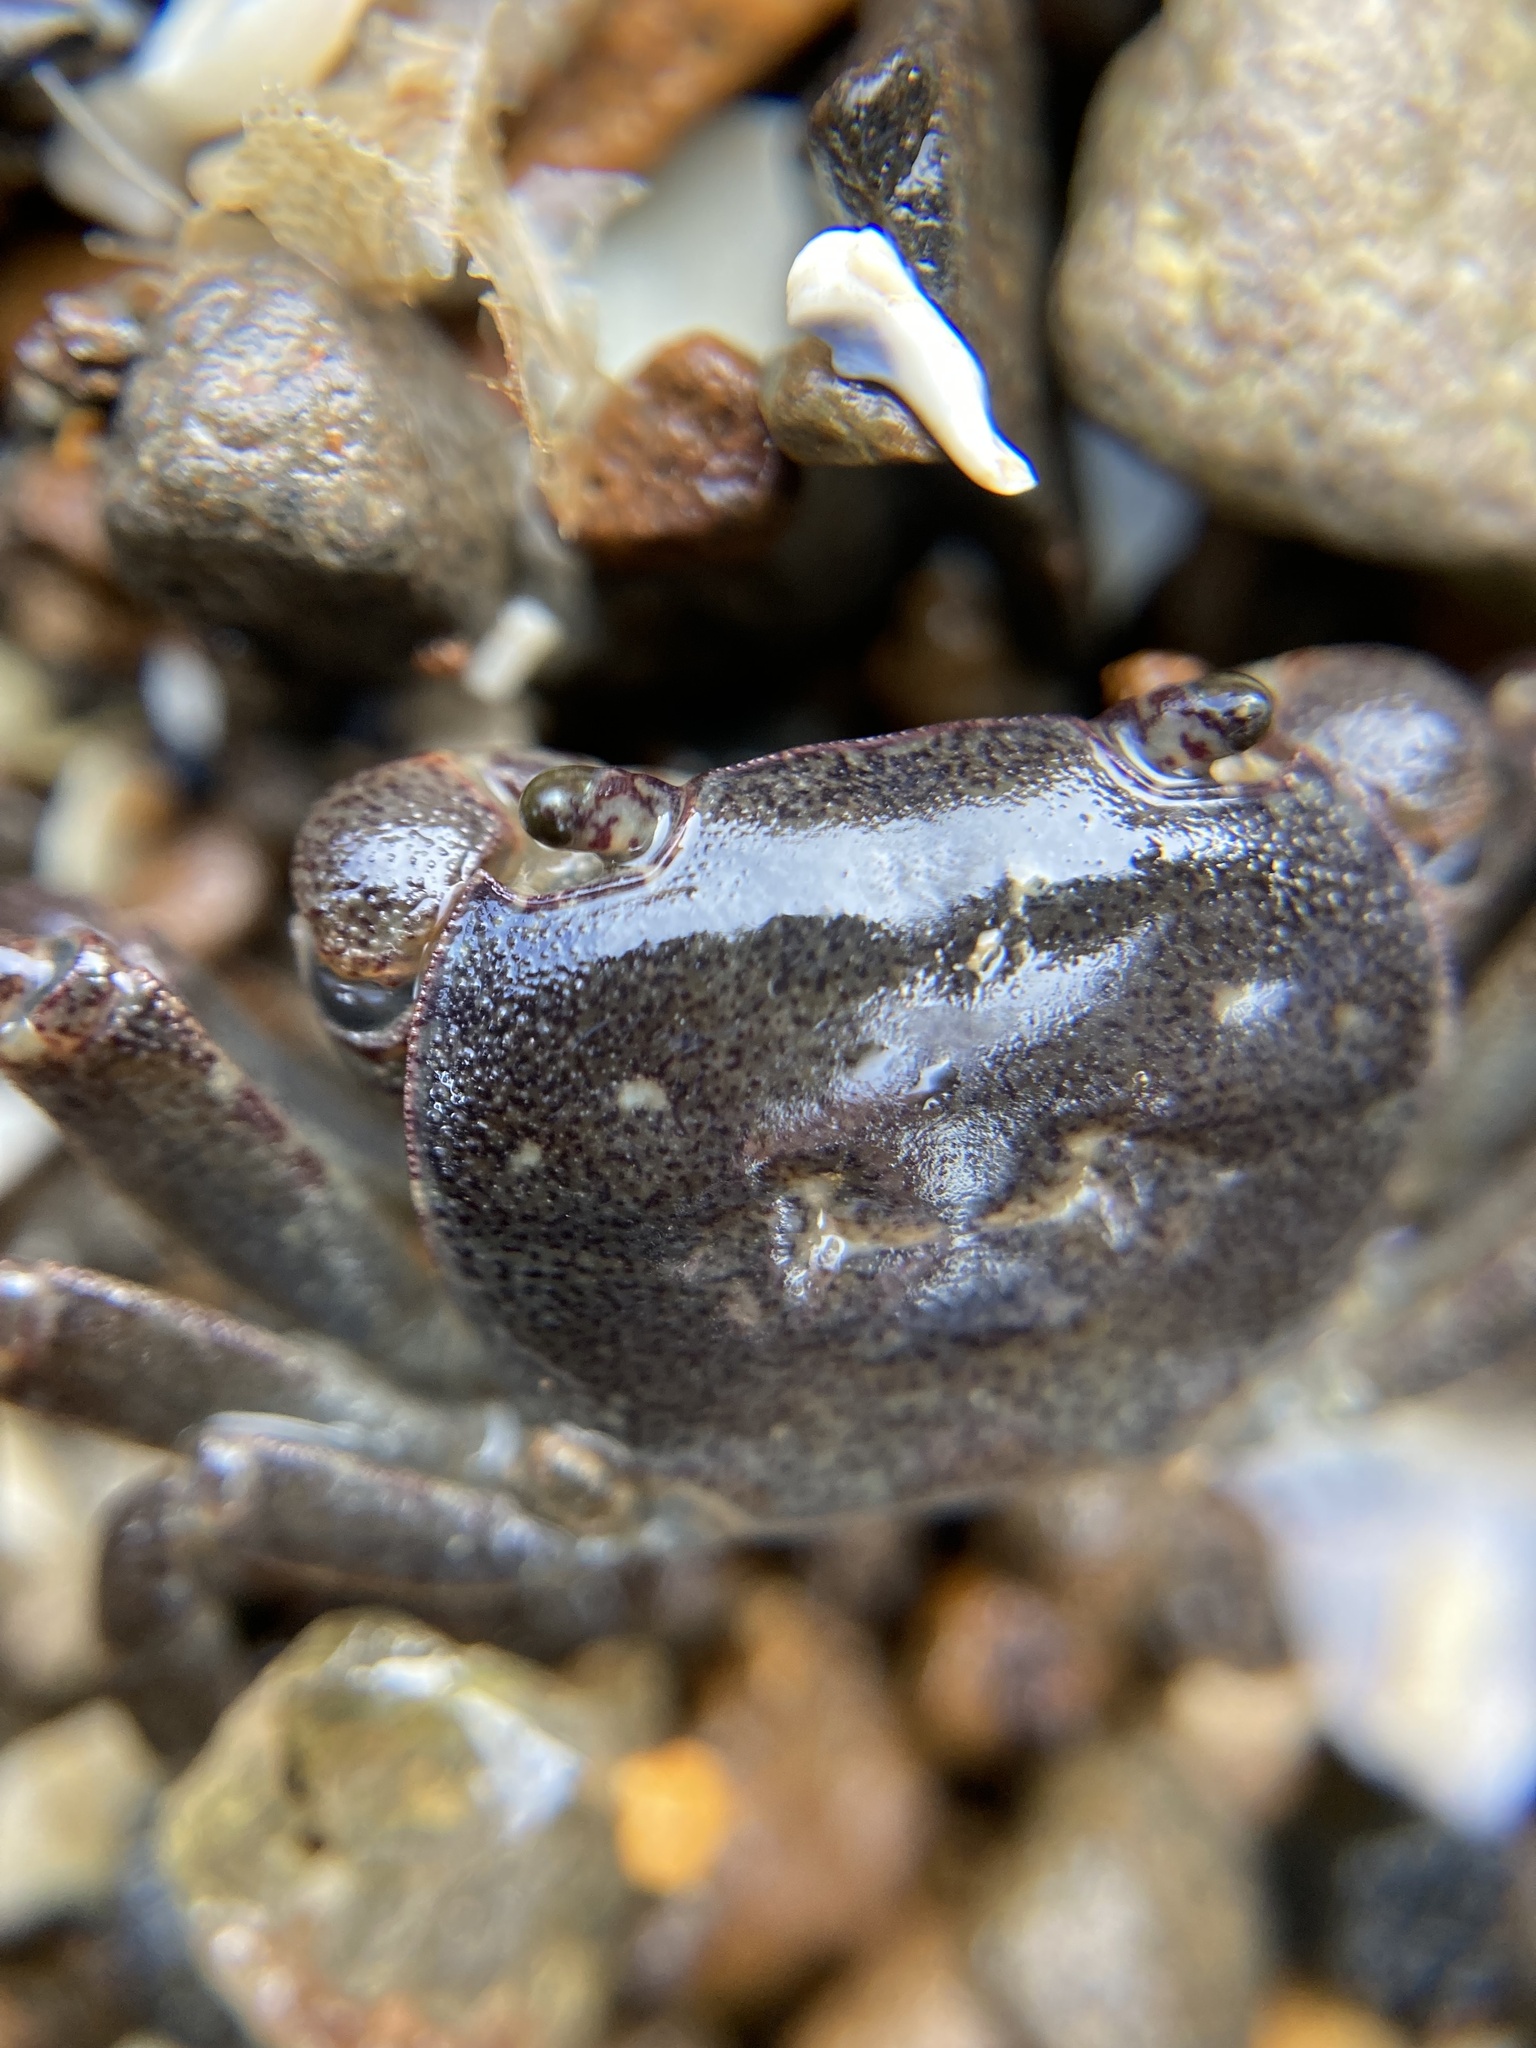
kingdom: Animalia
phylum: Arthropoda
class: Malacostraca
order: Decapoda
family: Varunidae
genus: Cyclograpsus
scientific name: Cyclograpsus lavauxi
